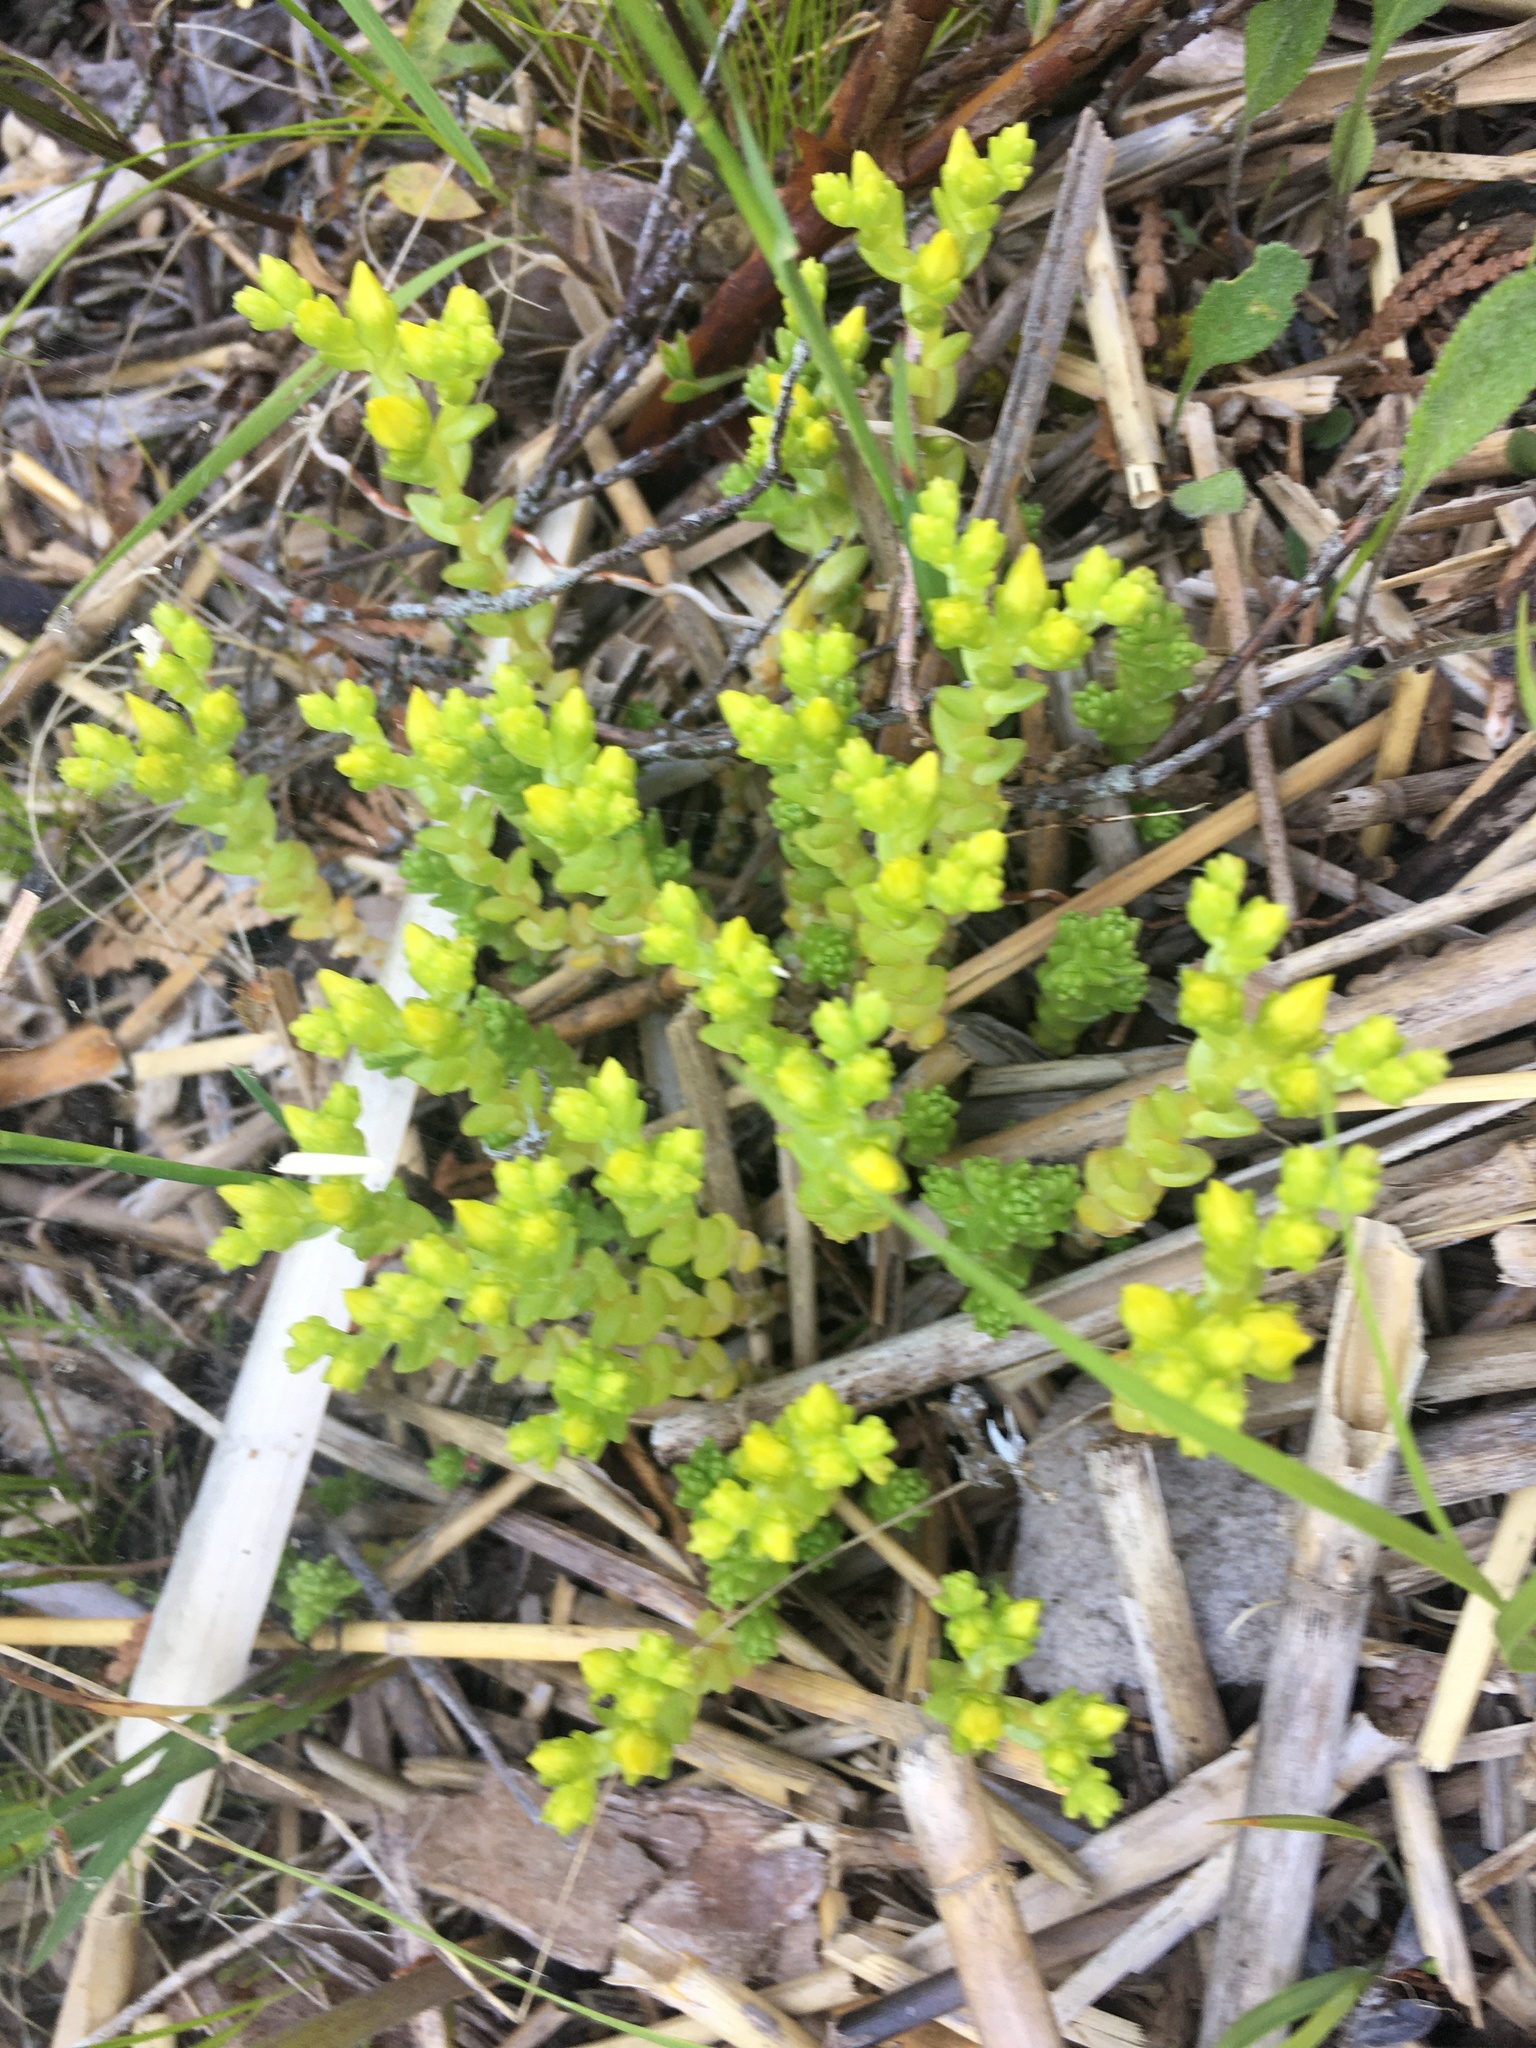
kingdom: Plantae
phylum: Tracheophyta
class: Magnoliopsida
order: Saxifragales
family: Crassulaceae
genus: Sedum
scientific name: Sedum acre
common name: Biting stonecrop
